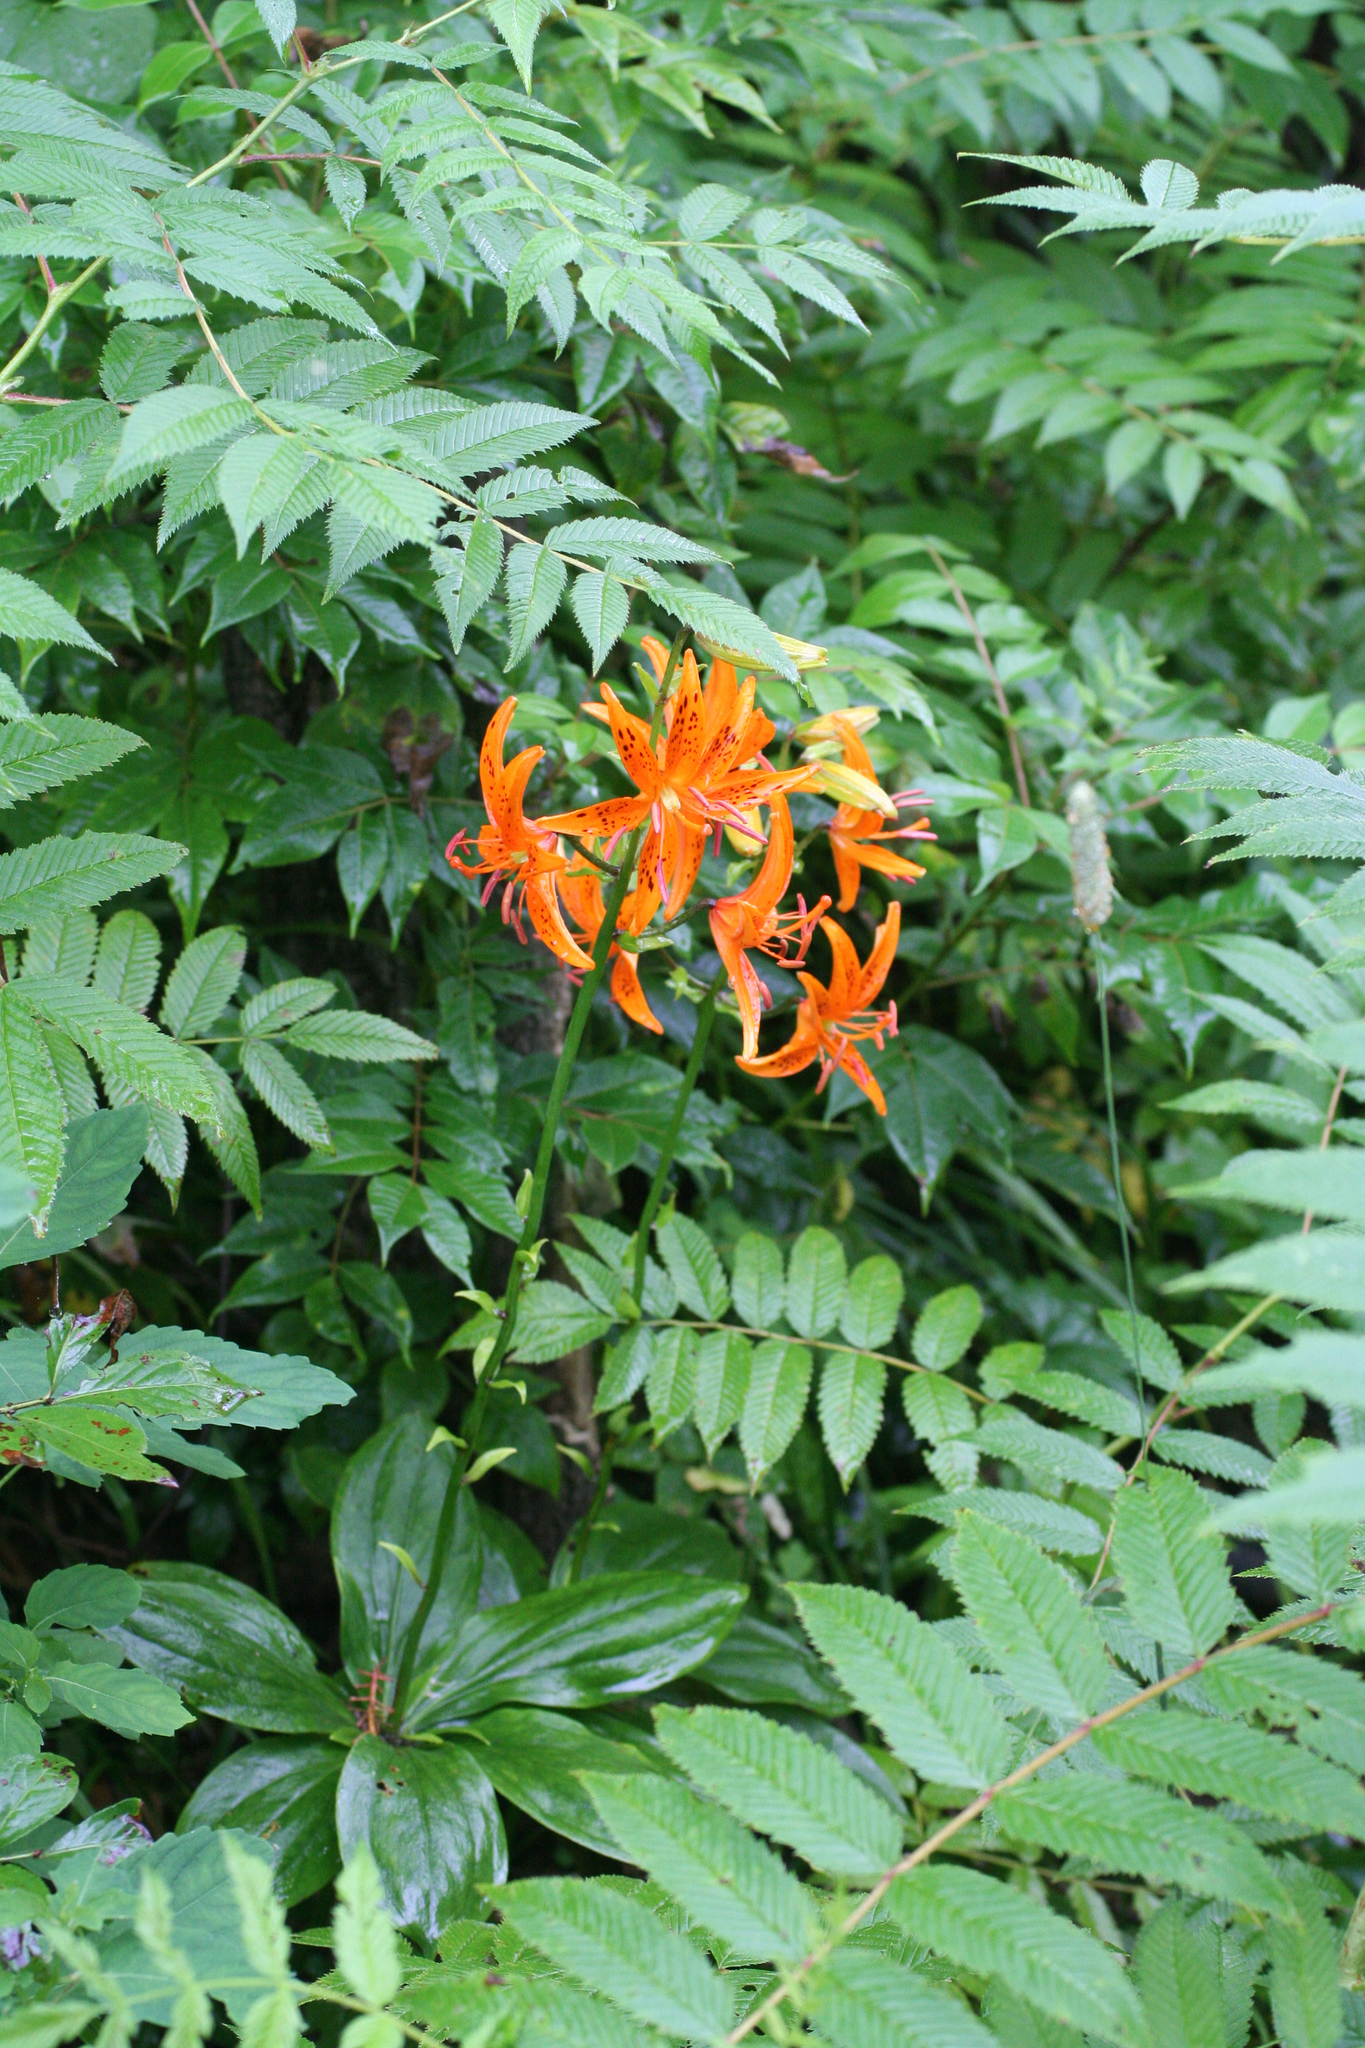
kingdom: Plantae
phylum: Tracheophyta
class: Liliopsida
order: Liliales
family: Liliaceae
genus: Lilium
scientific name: Lilium distichum
